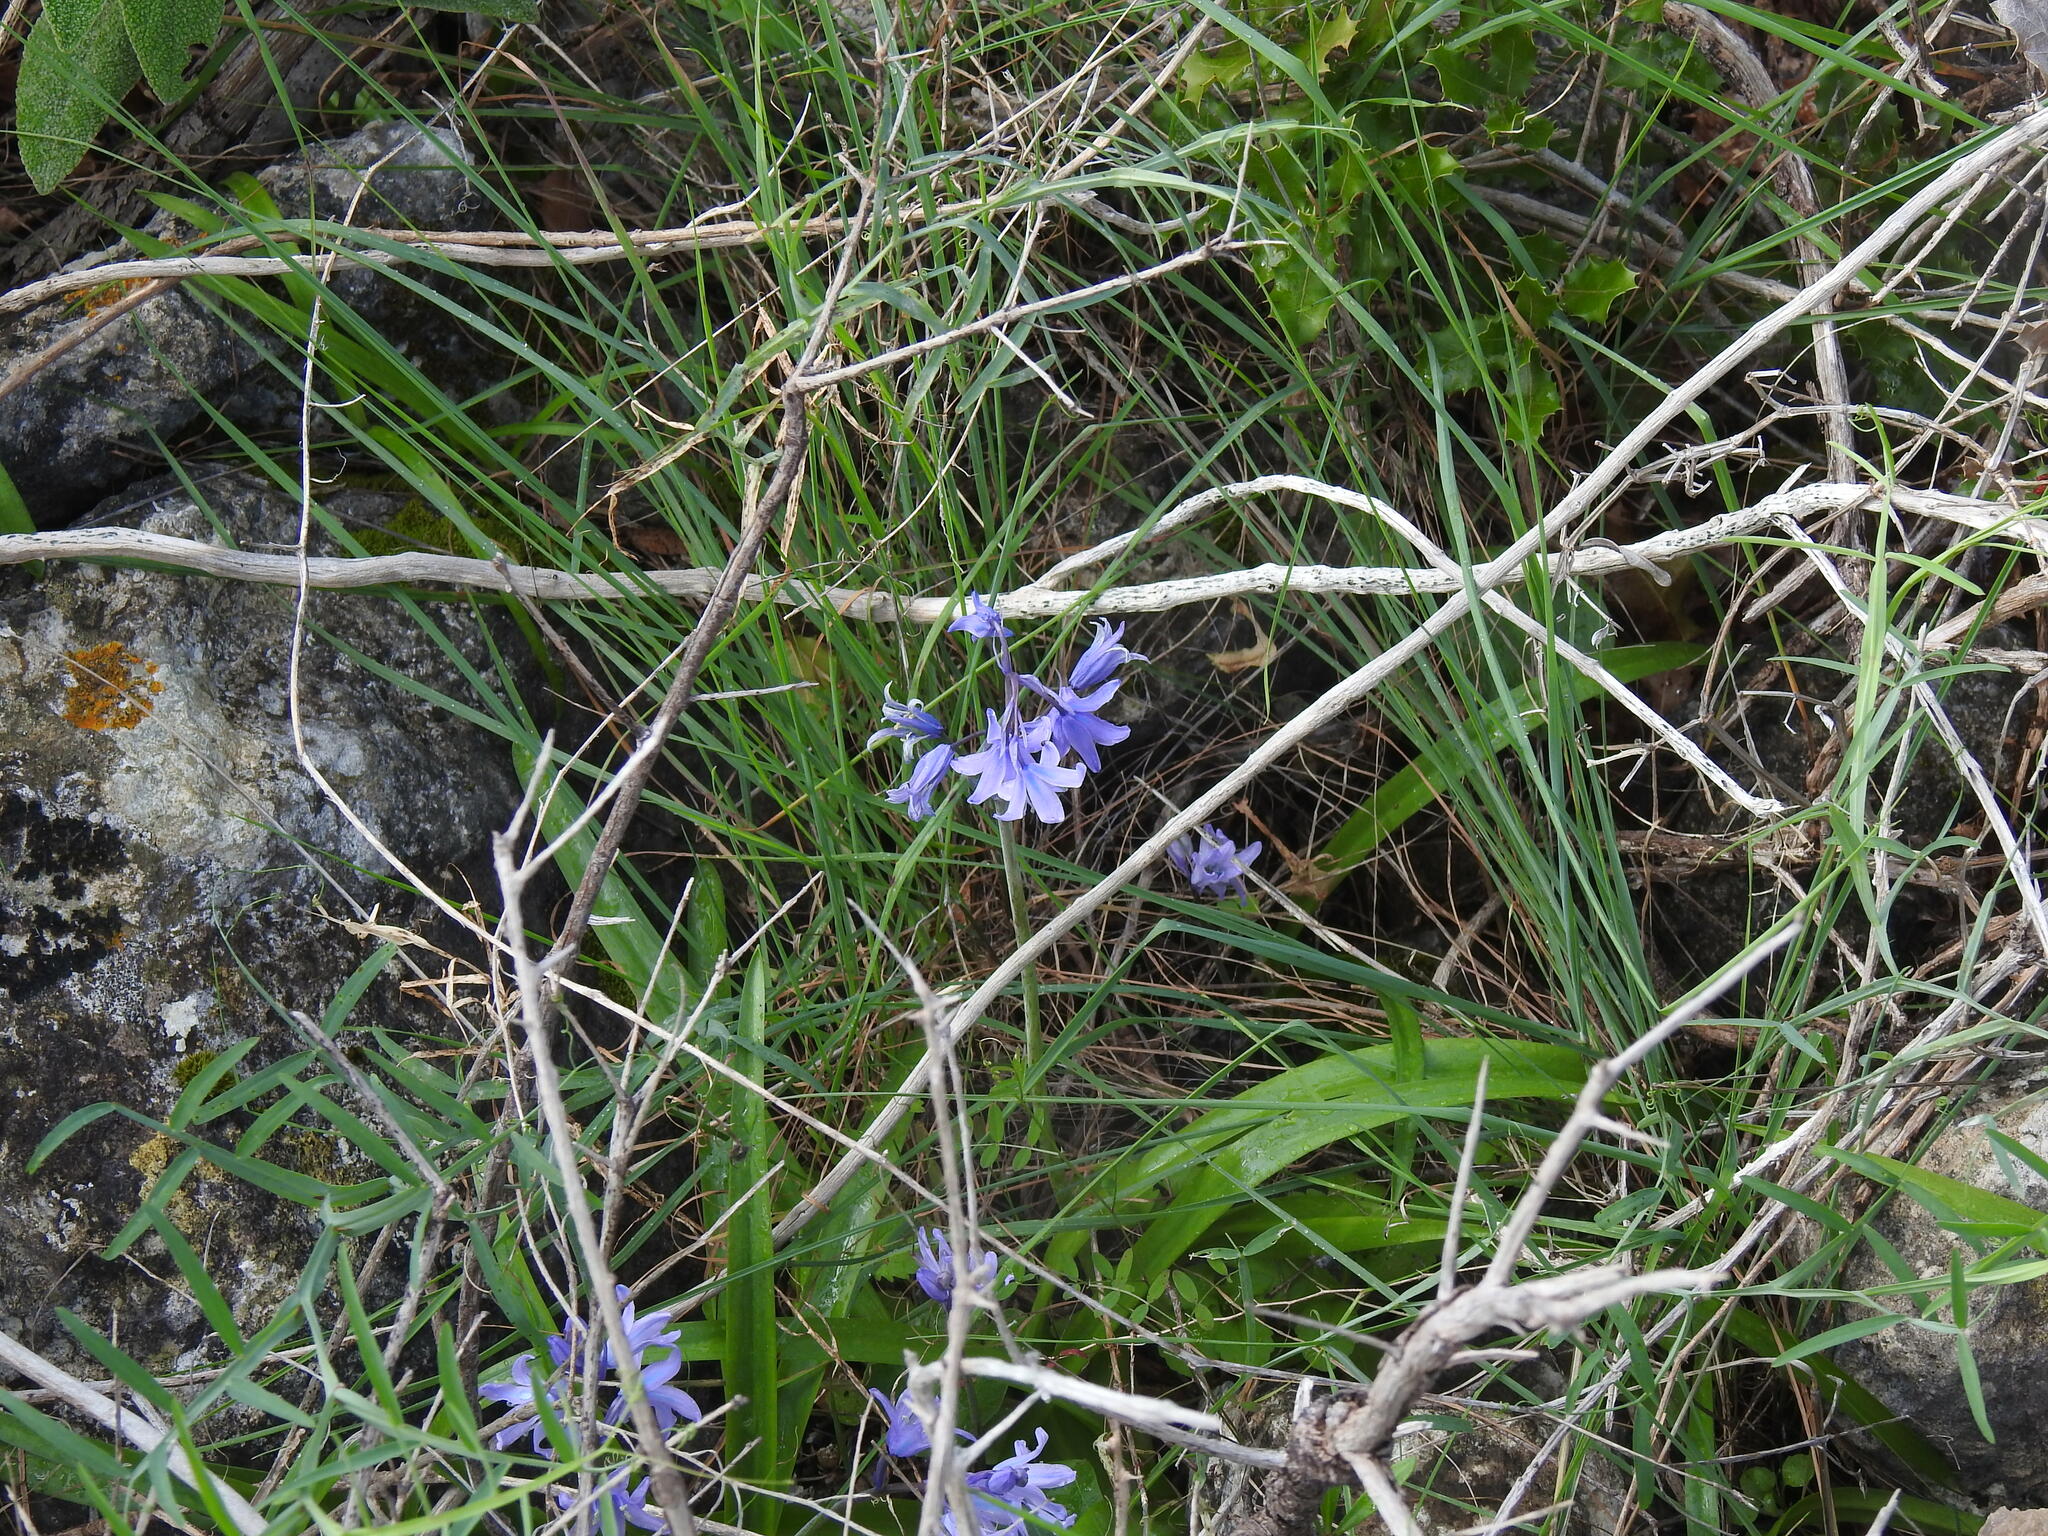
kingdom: Plantae
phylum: Tracheophyta
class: Liliopsida
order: Asparagales
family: Asparagaceae
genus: Hyacinthoides
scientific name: Hyacinthoides hispanica
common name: Spanish bluebell
